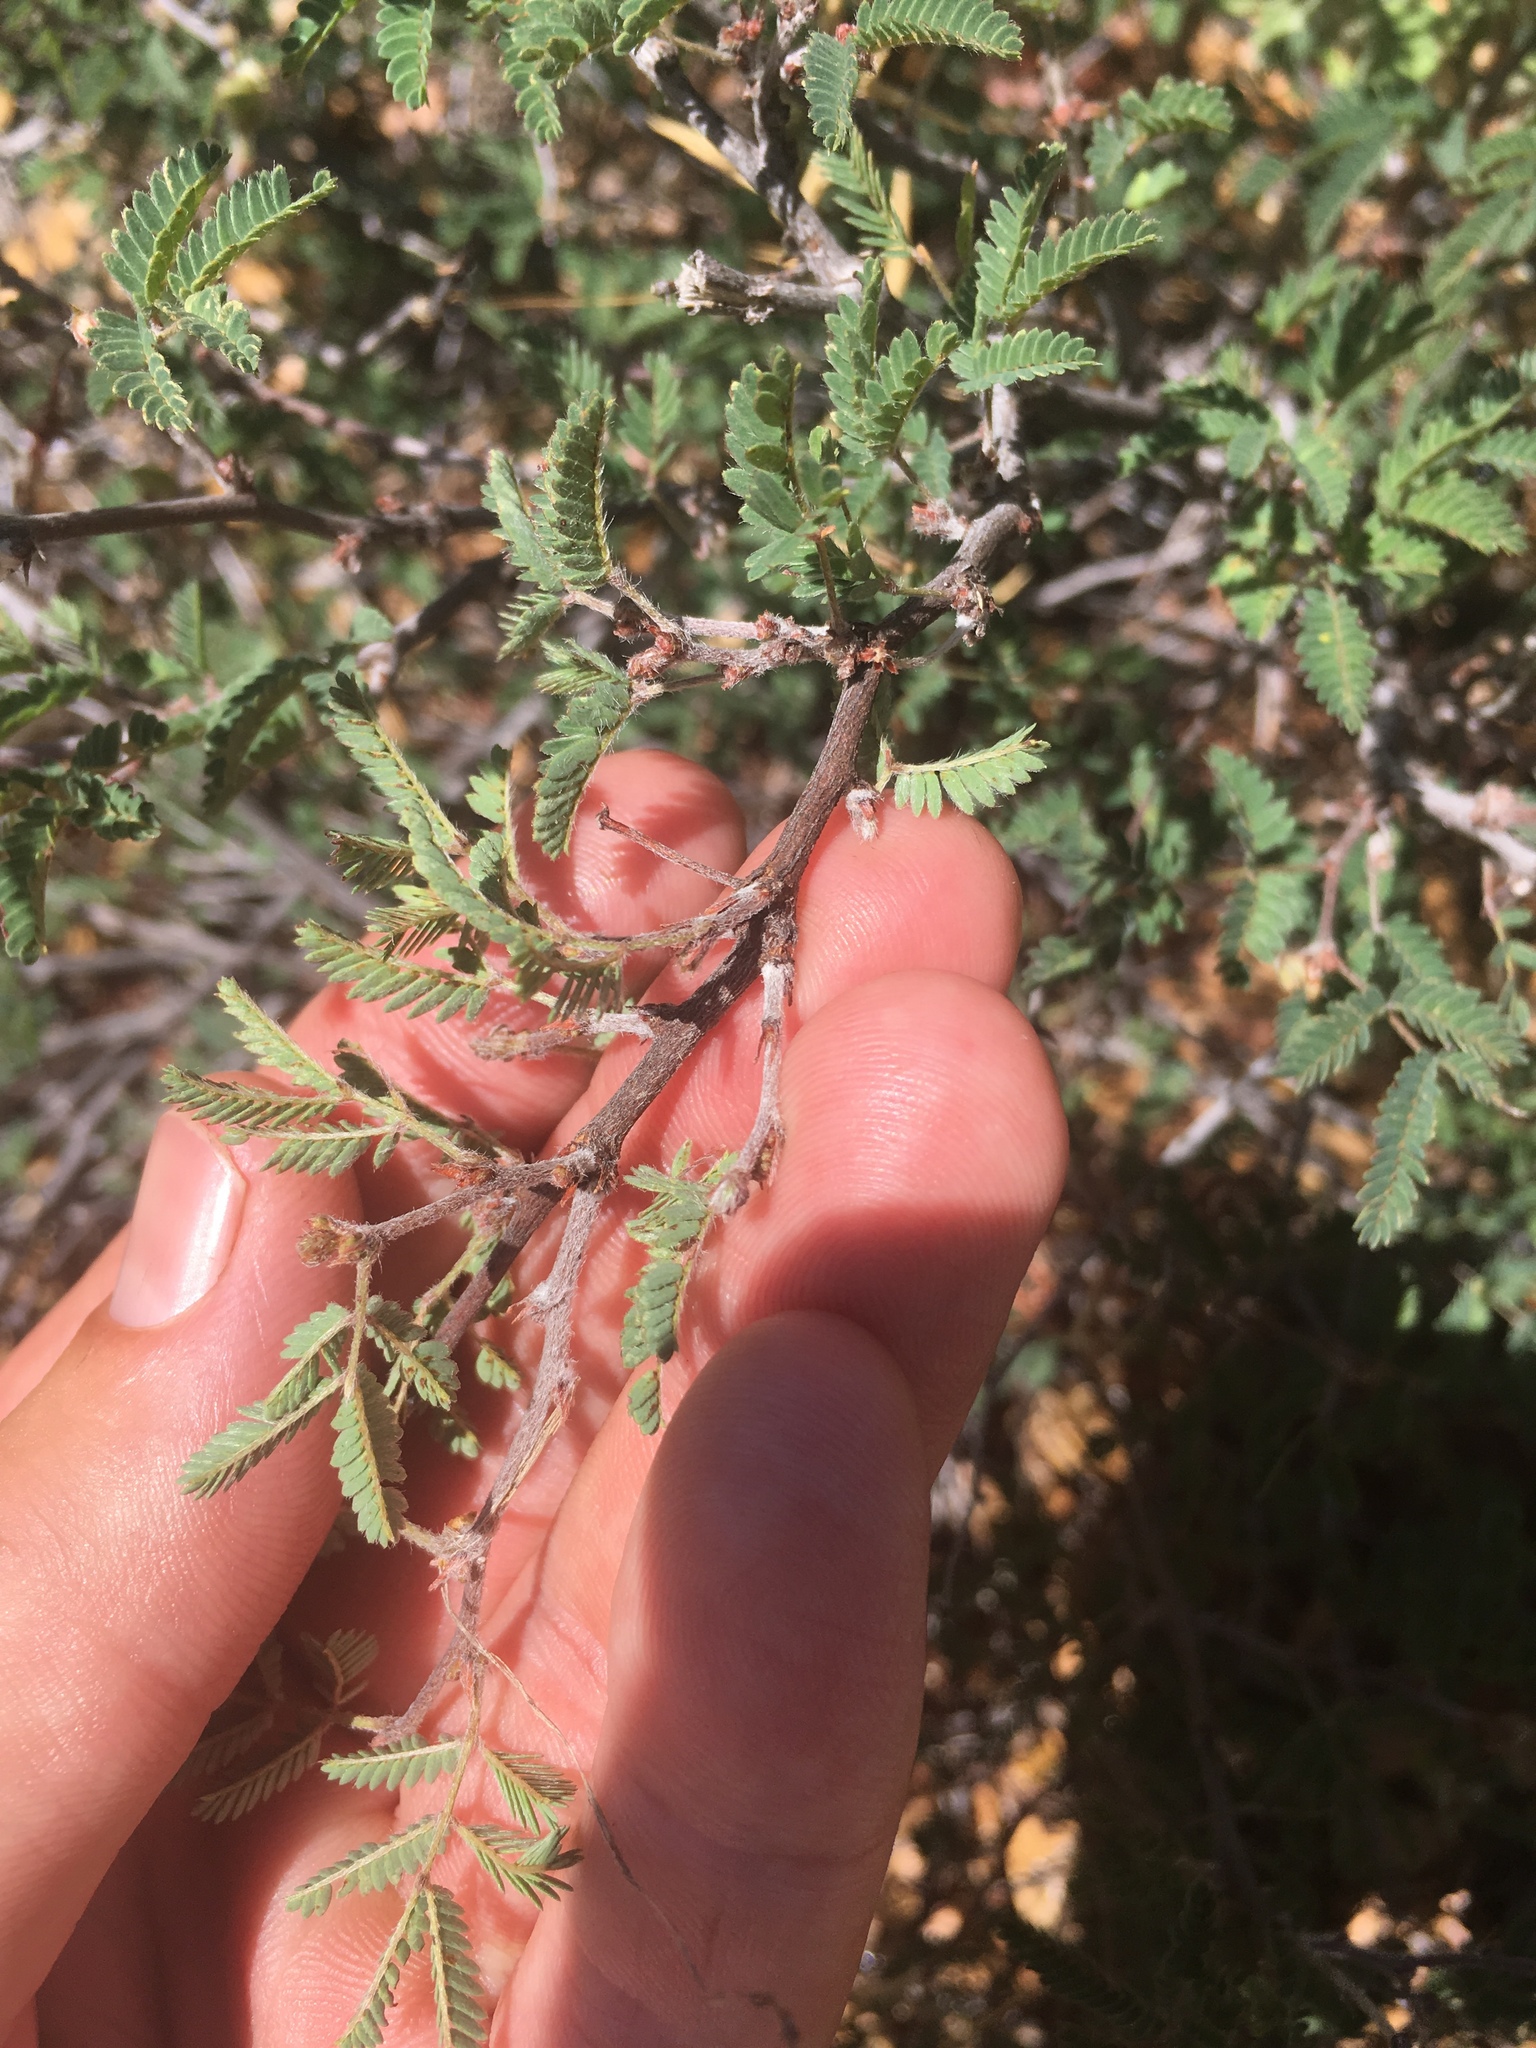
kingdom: Plantae
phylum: Tracheophyta
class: Magnoliopsida
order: Fabales
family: Fabaceae
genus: Calliandra
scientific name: Calliandra eriophylla
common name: Fairy-duster
